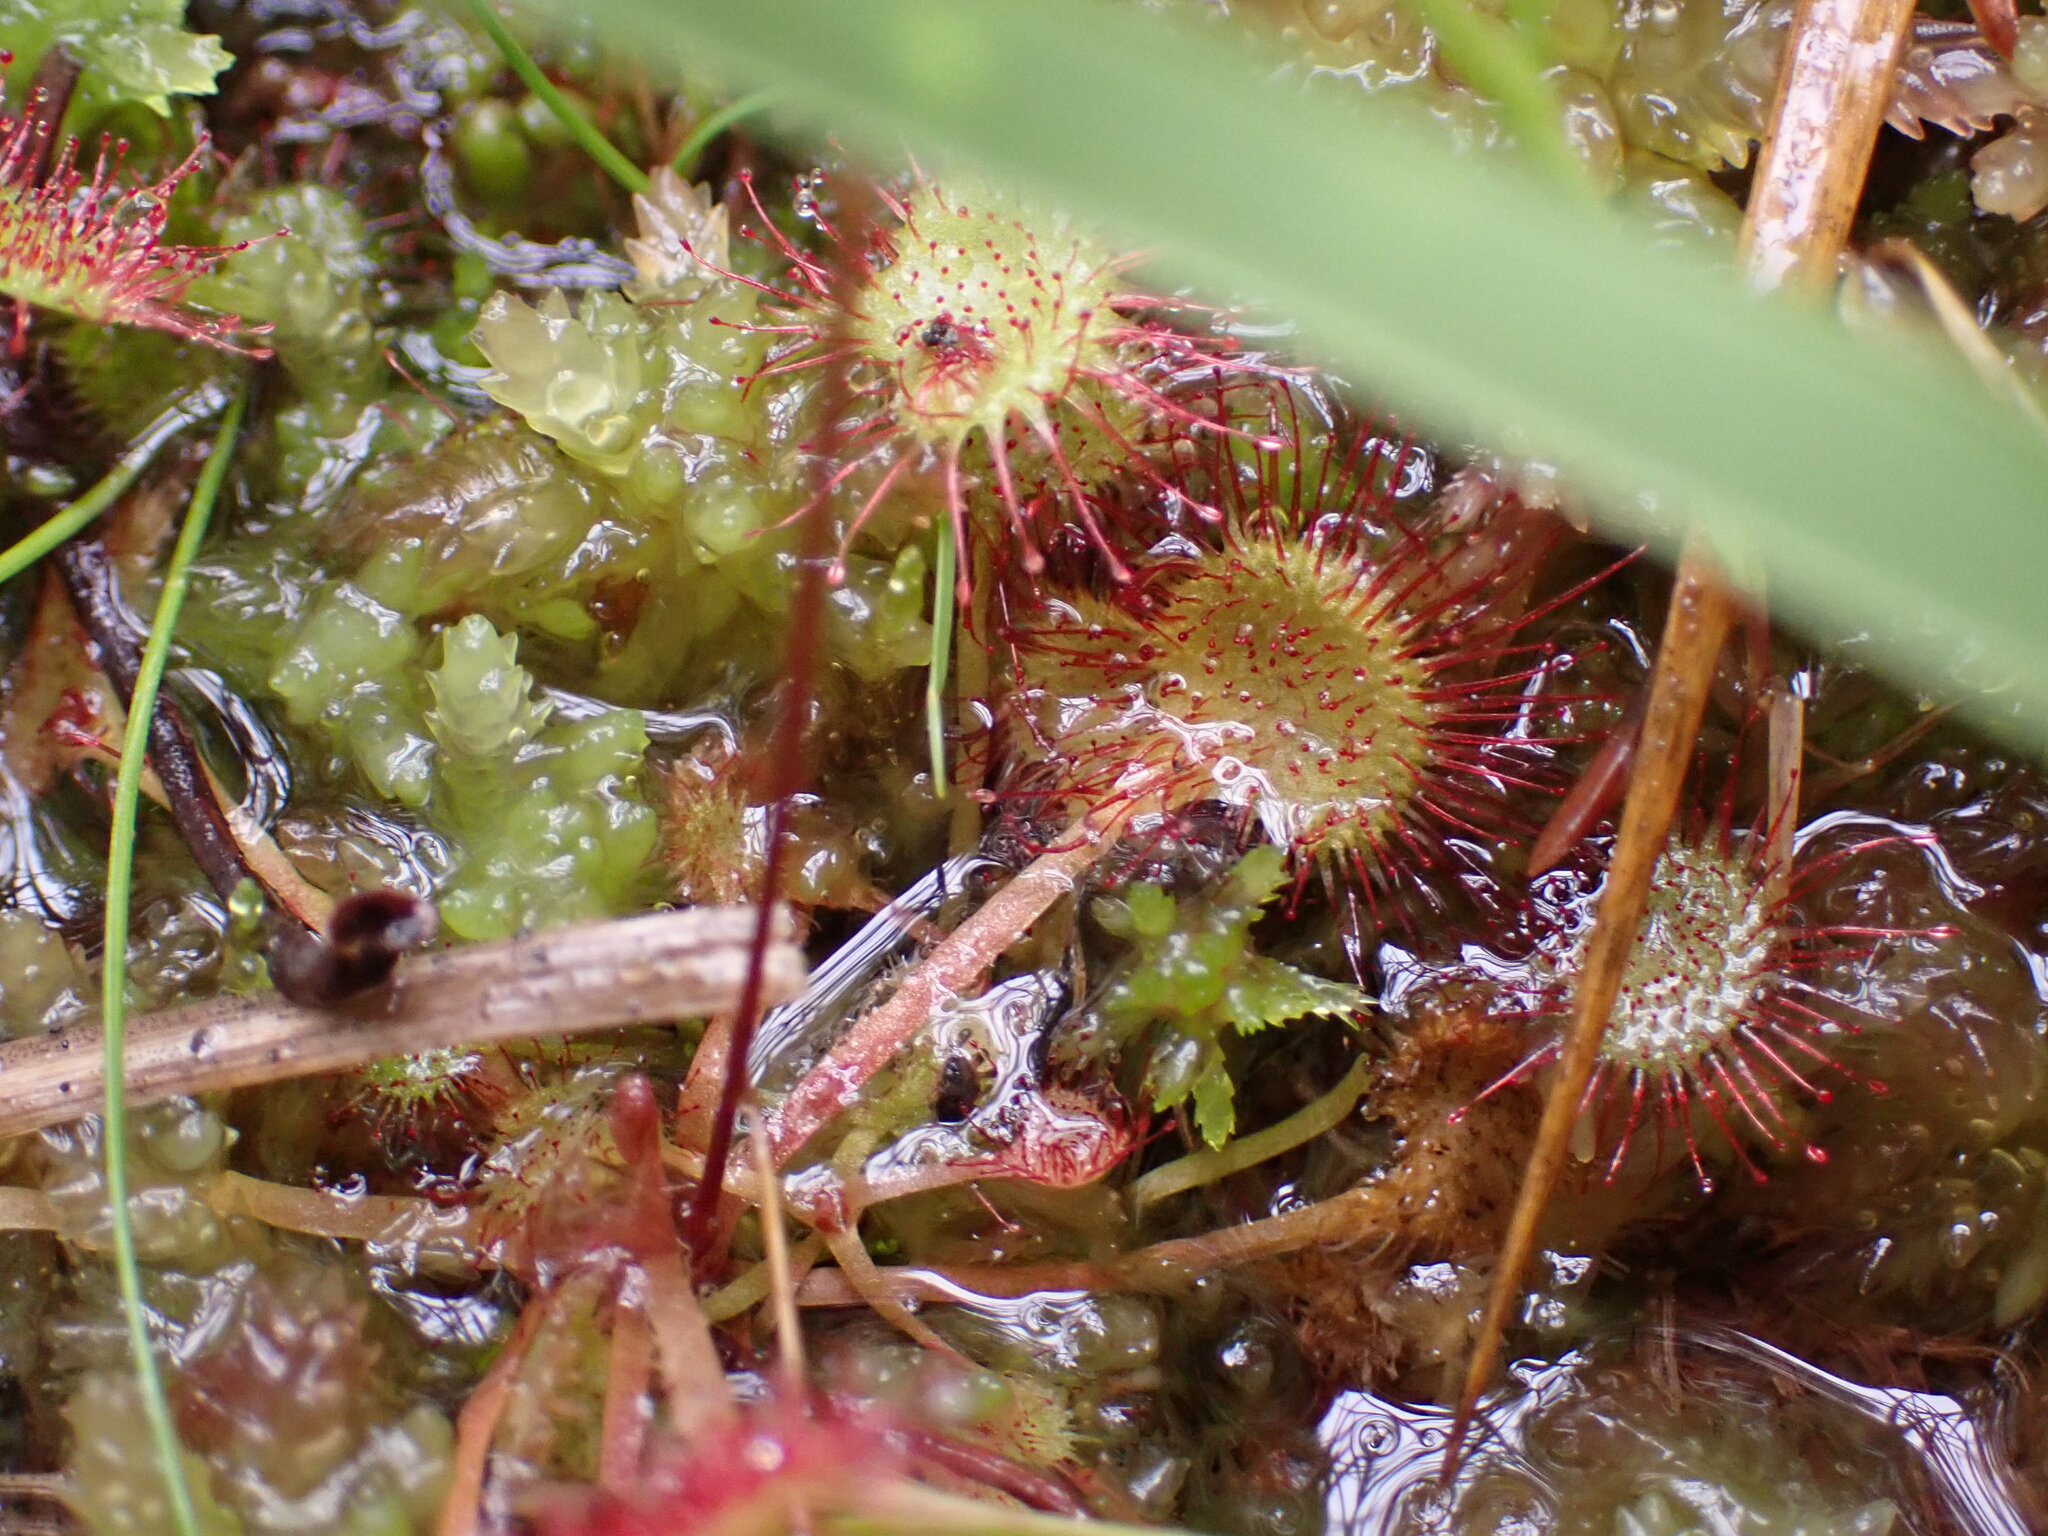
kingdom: Plantae
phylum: Tracheophyta
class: Magnoliopsida
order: Caryophyllales
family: Droseraceae
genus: Drosera
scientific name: Drosera rotundifolia
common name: Round-leaved sundew
